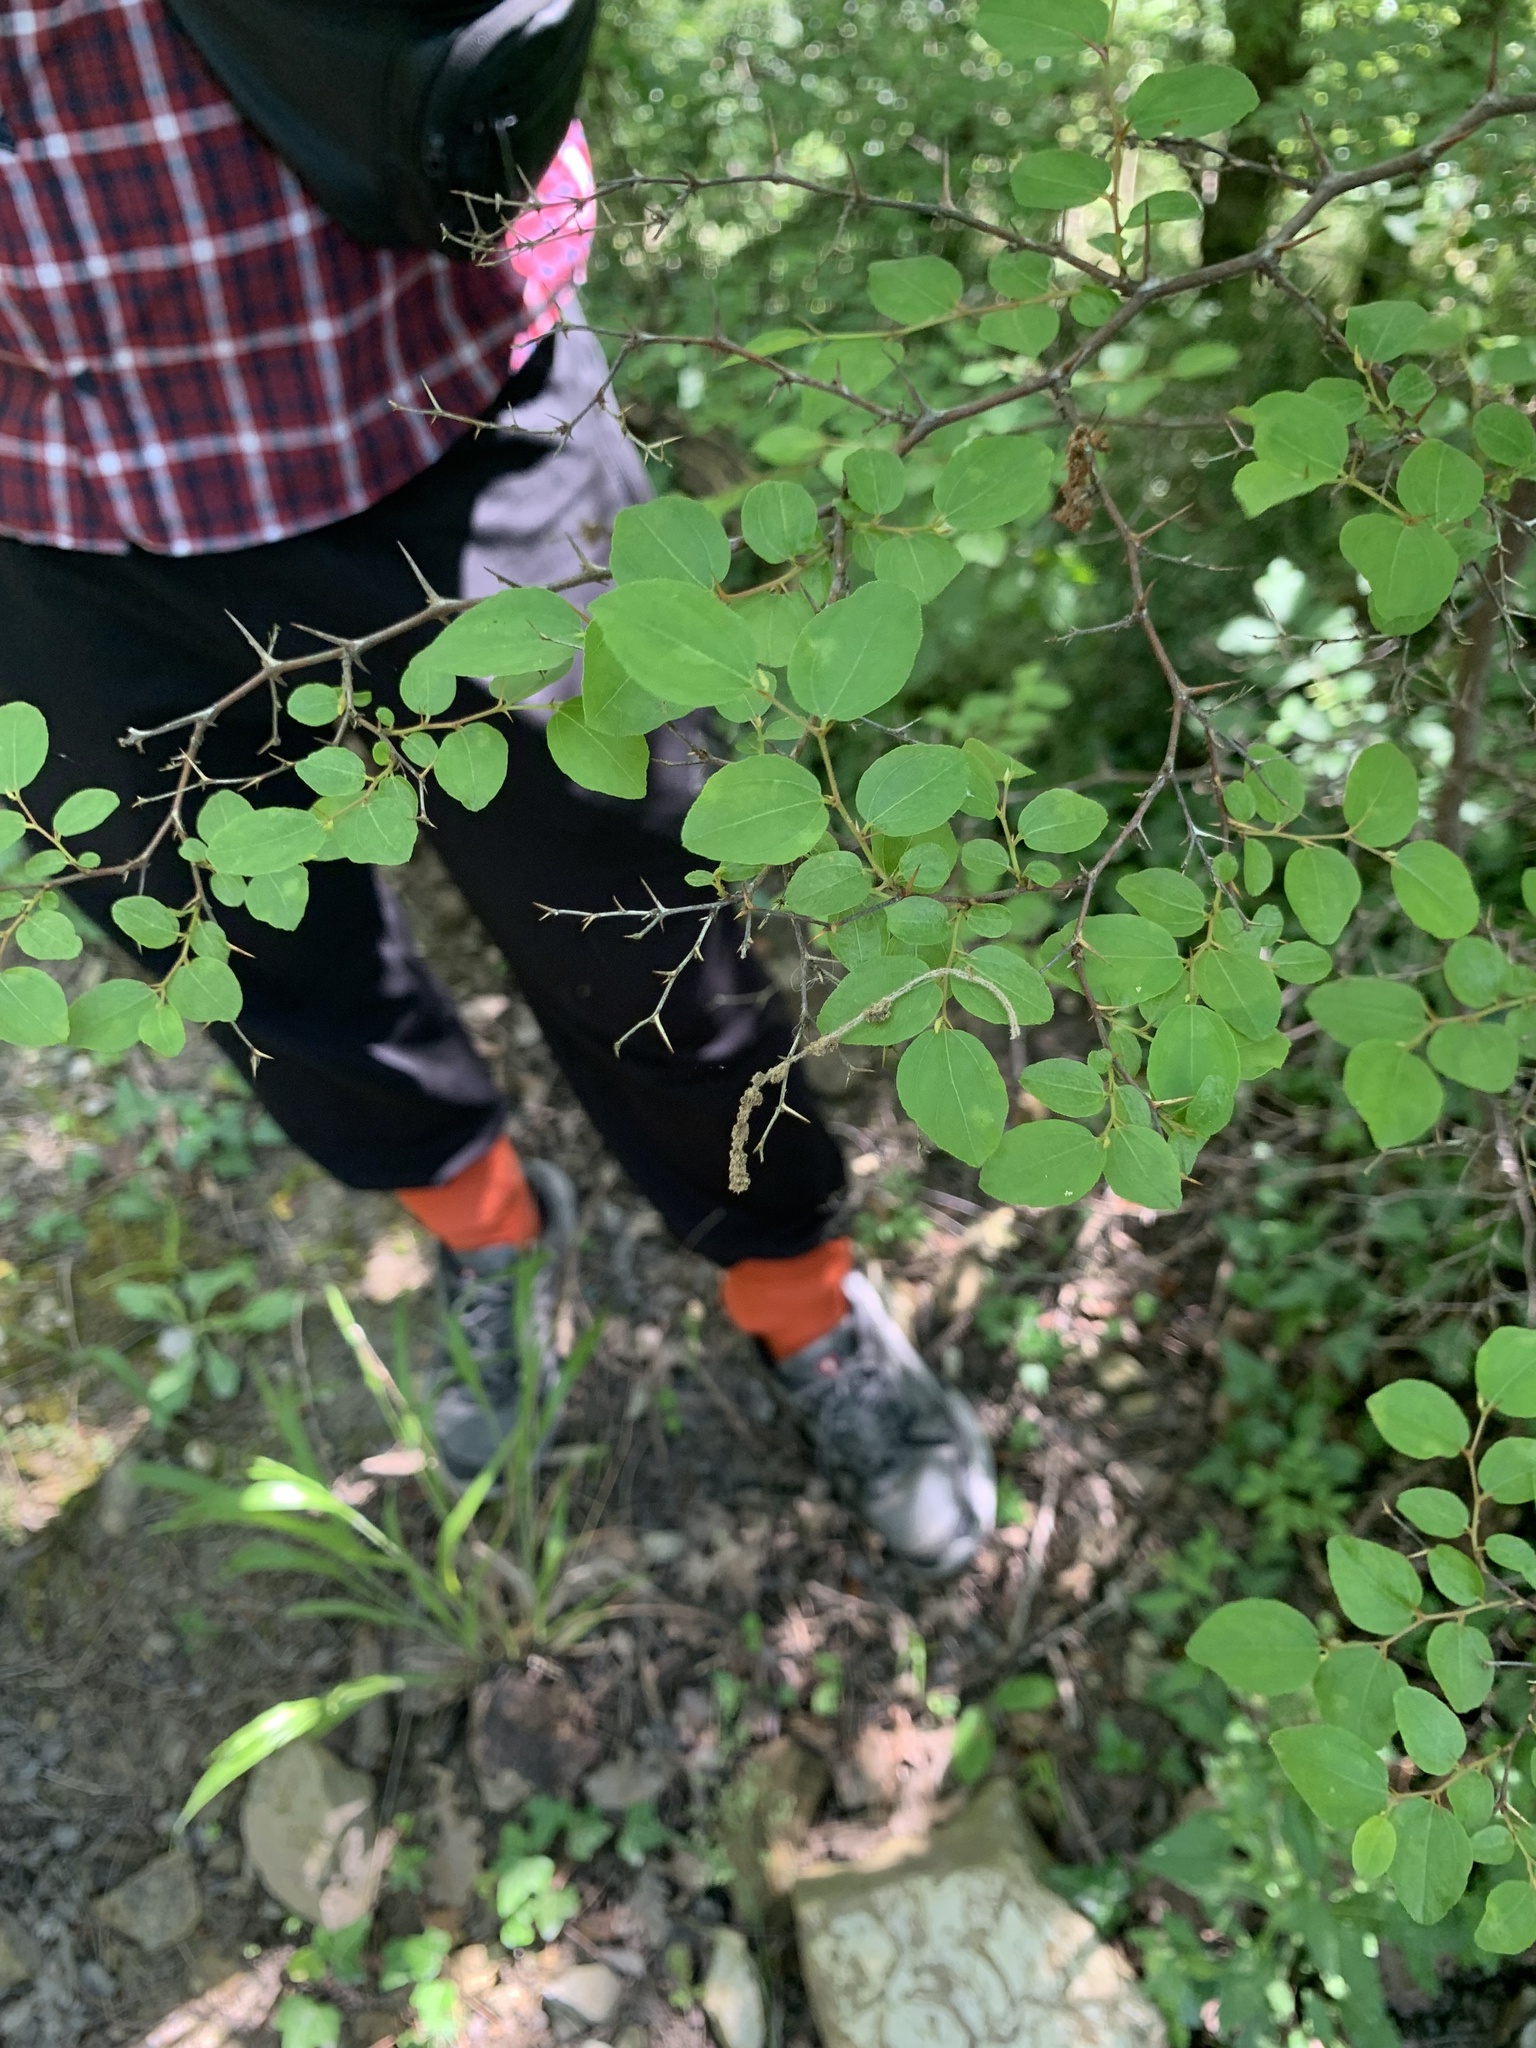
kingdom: Plantae
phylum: Tracheophyta
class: Magnoliopsida
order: Rosales
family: Rhamnaceae
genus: Paliurus
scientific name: Paliurus spina-christi
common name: Jeruselem thorn
